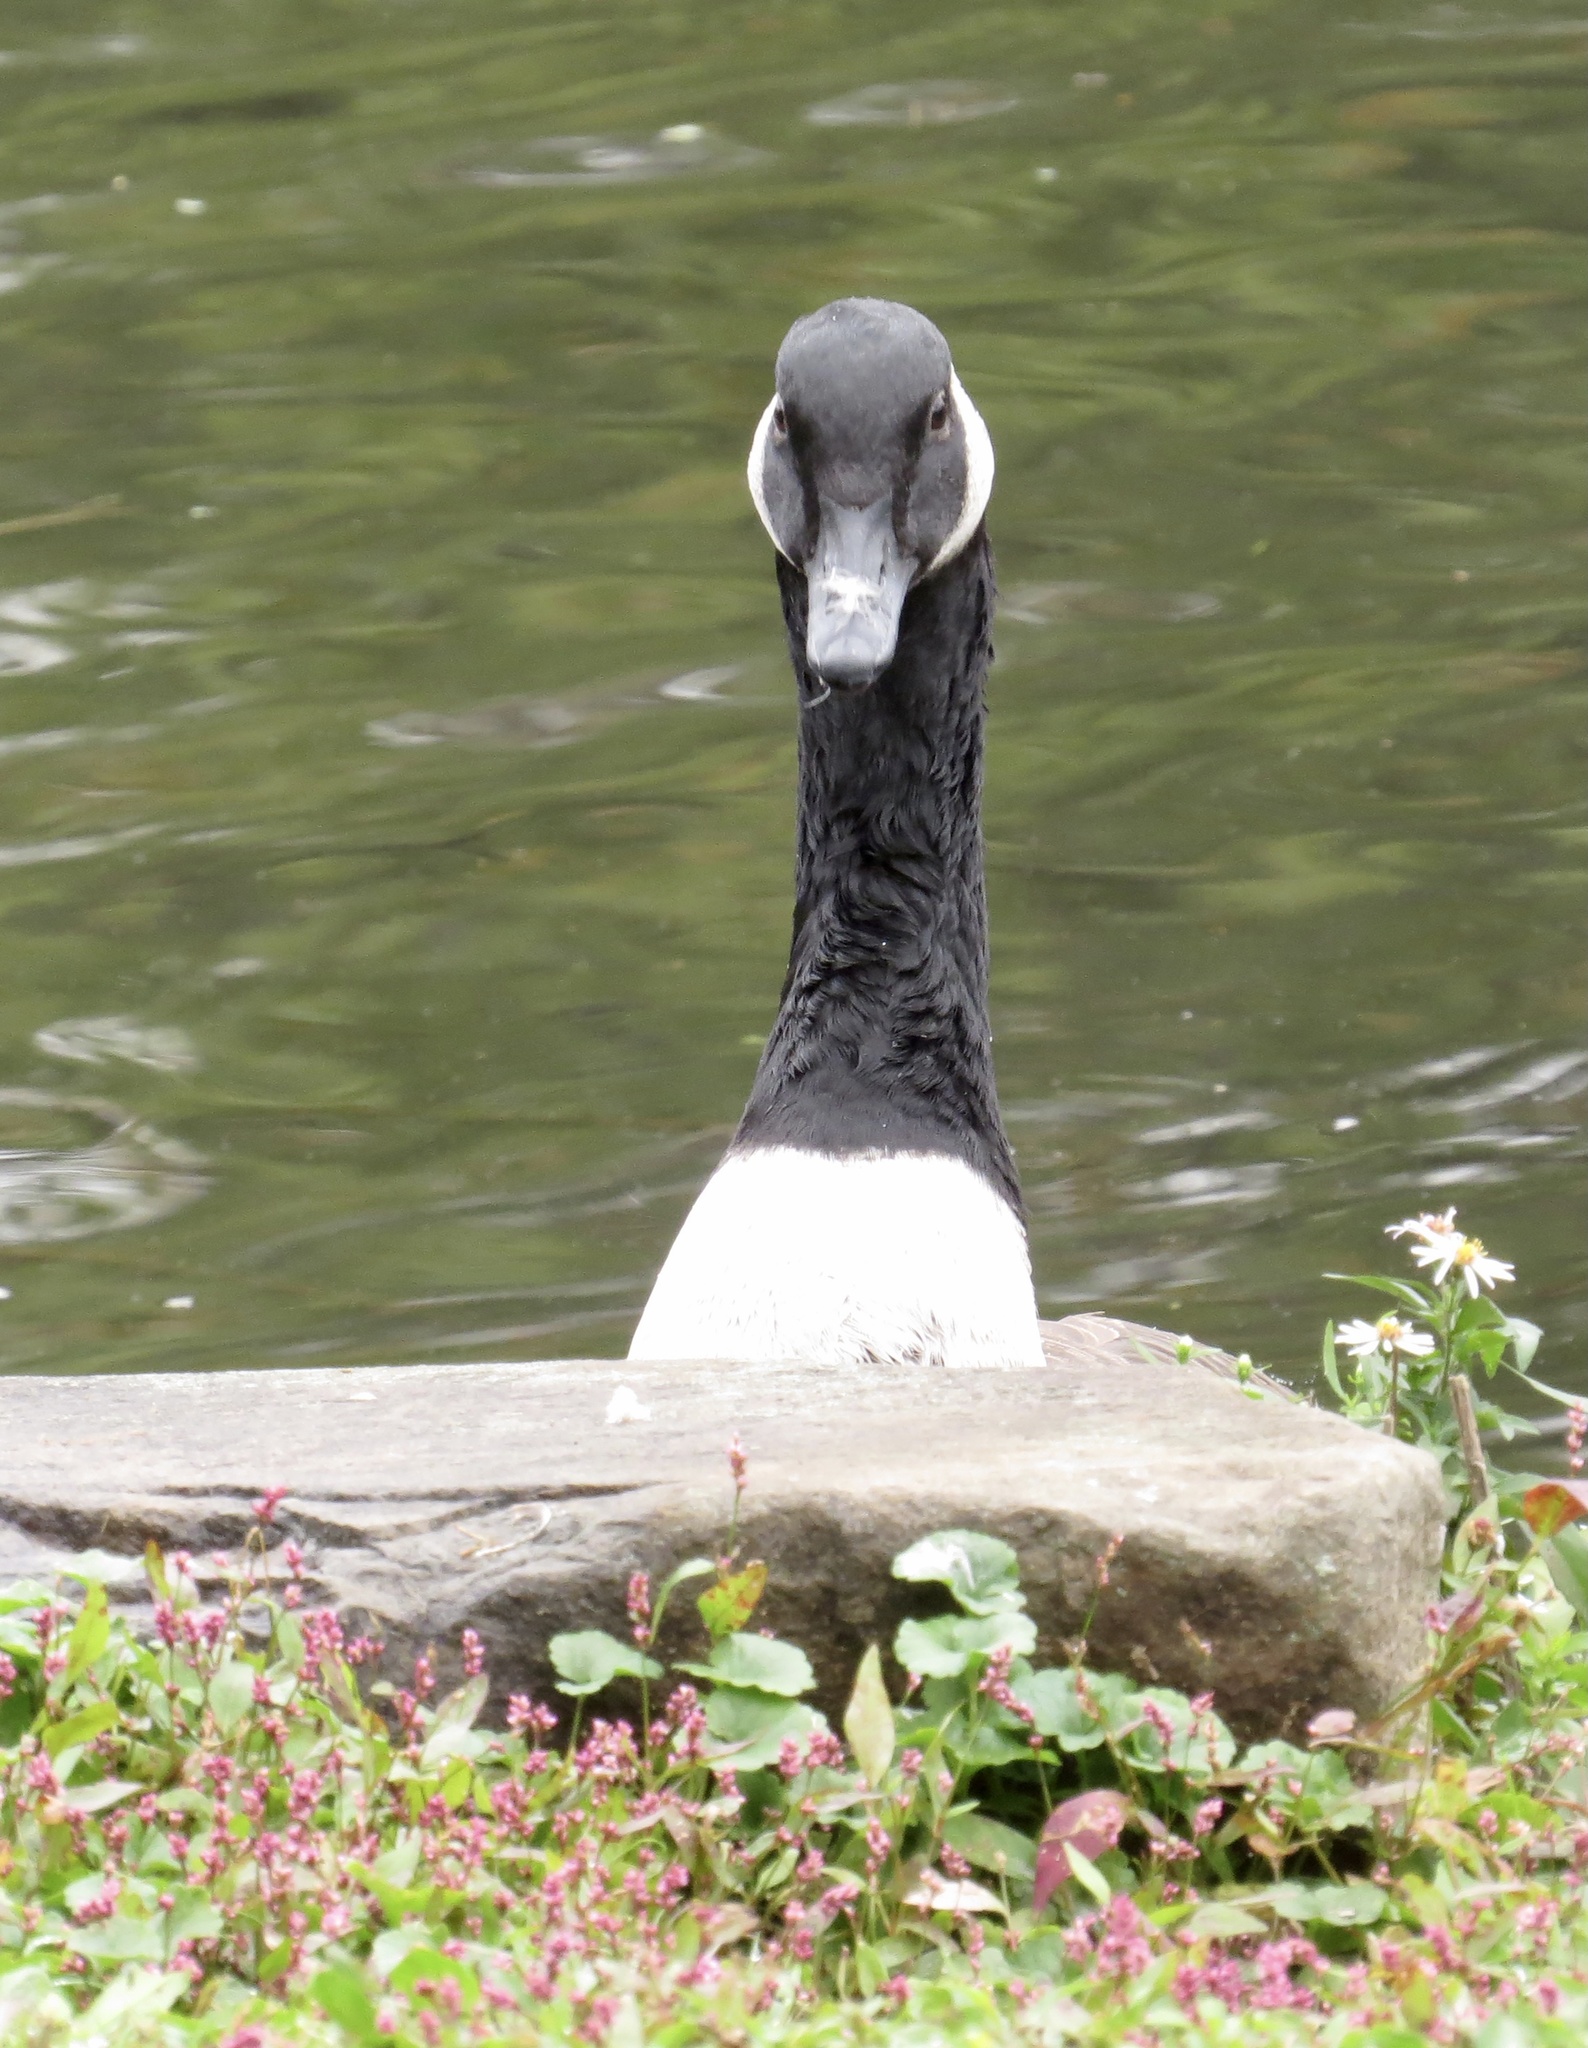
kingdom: Animalia
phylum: Chordata
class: Aves
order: Anseriformes
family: Anatidae
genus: Branta
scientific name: Branta canadensis
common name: Canada goose
